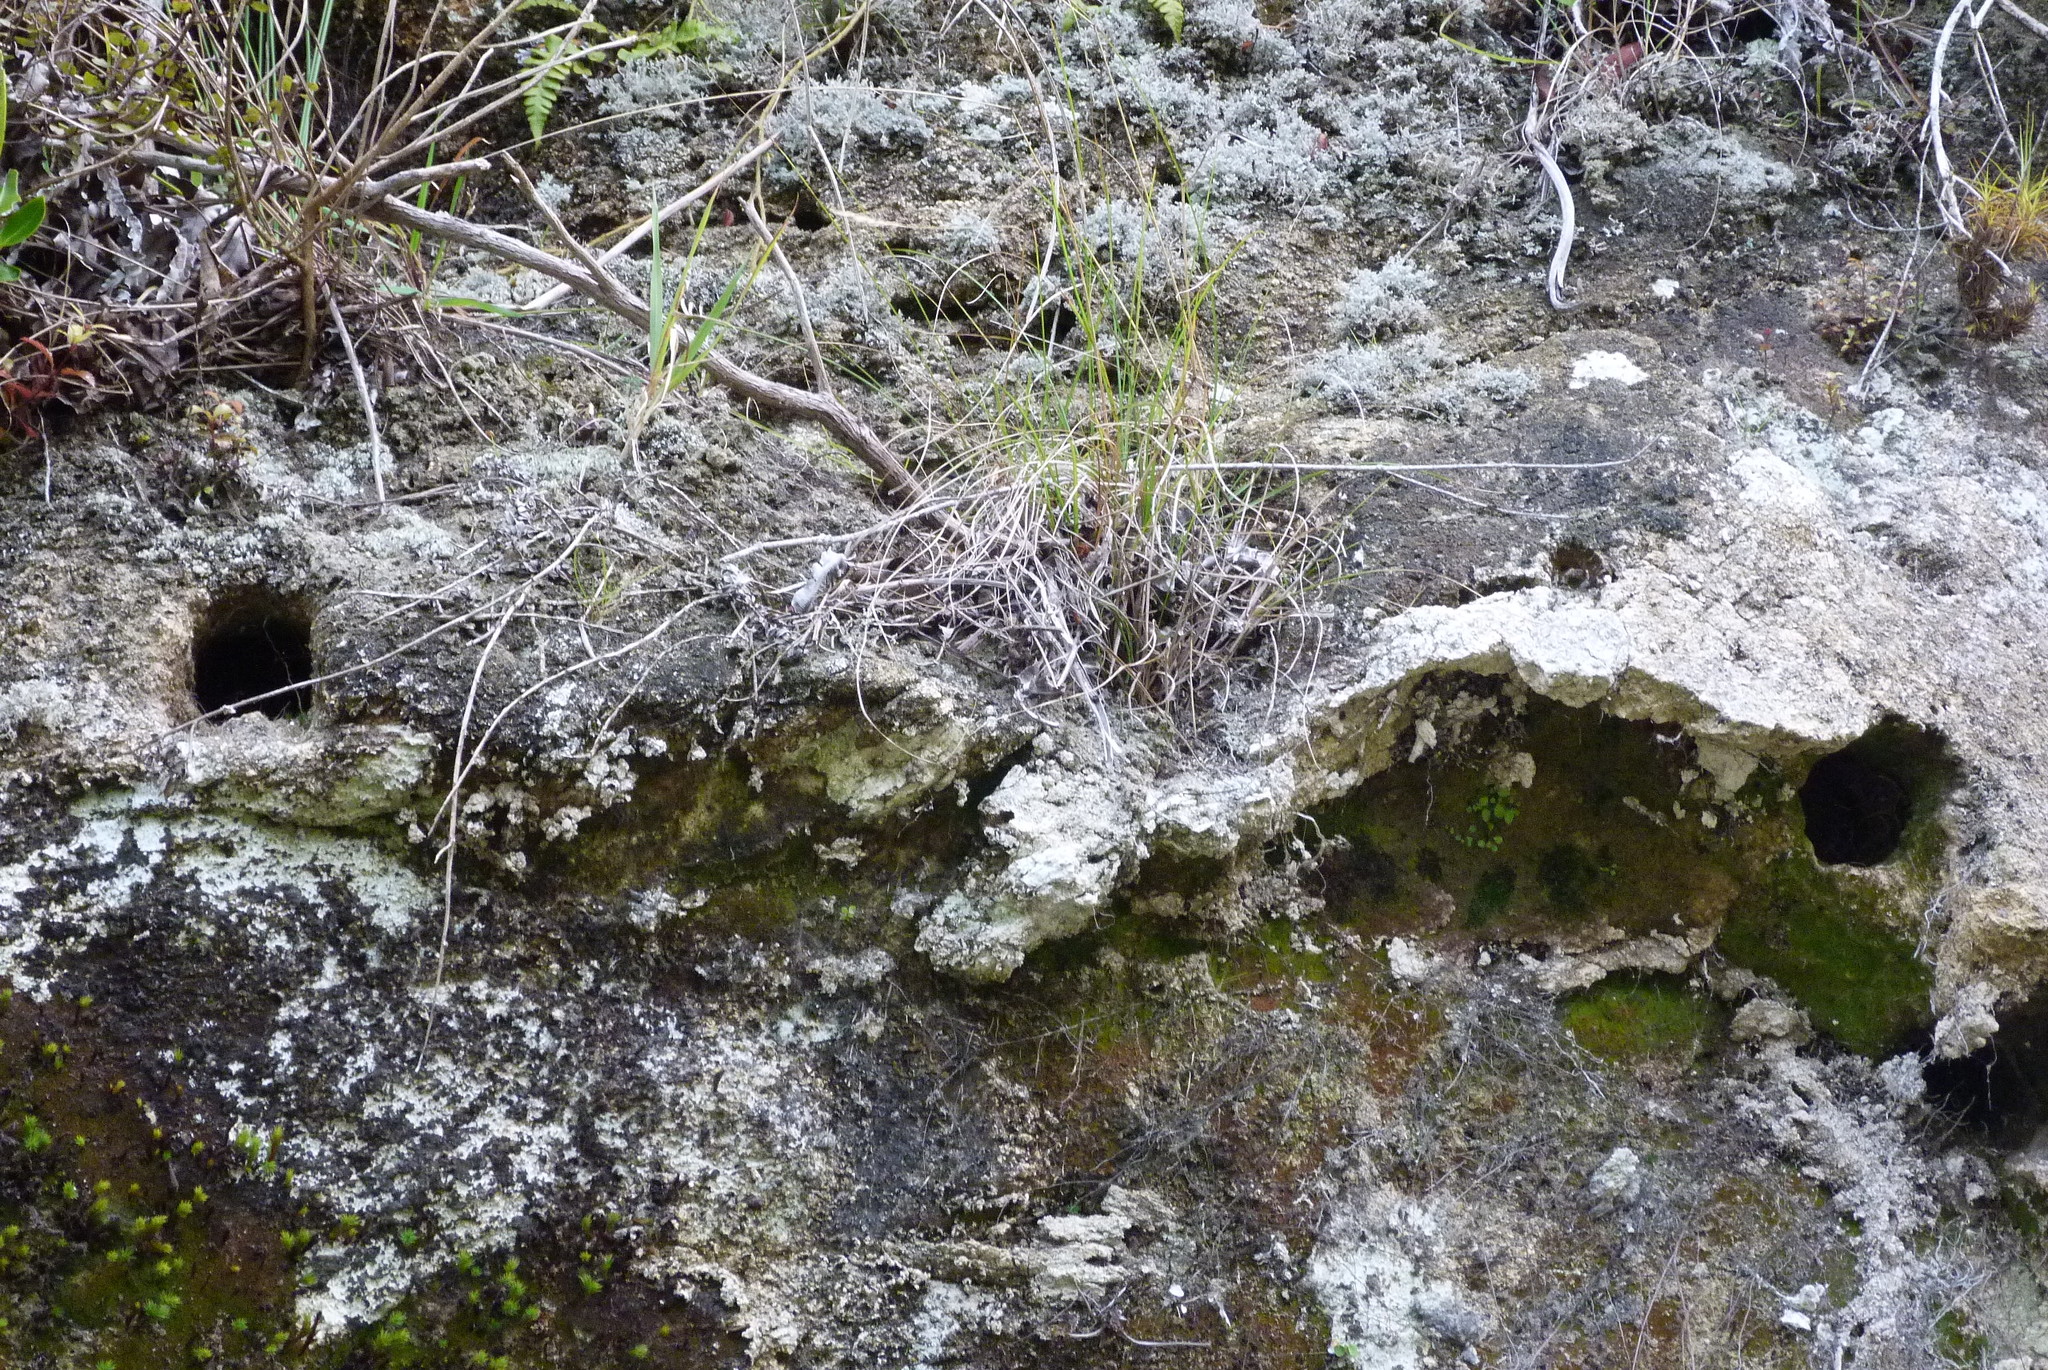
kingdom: Animalia
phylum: Chordata
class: Aves
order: Coraciiformes
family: Alcedinidae
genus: Todiramphus
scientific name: Todiramphus sanctus
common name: Sacred kingfisher
